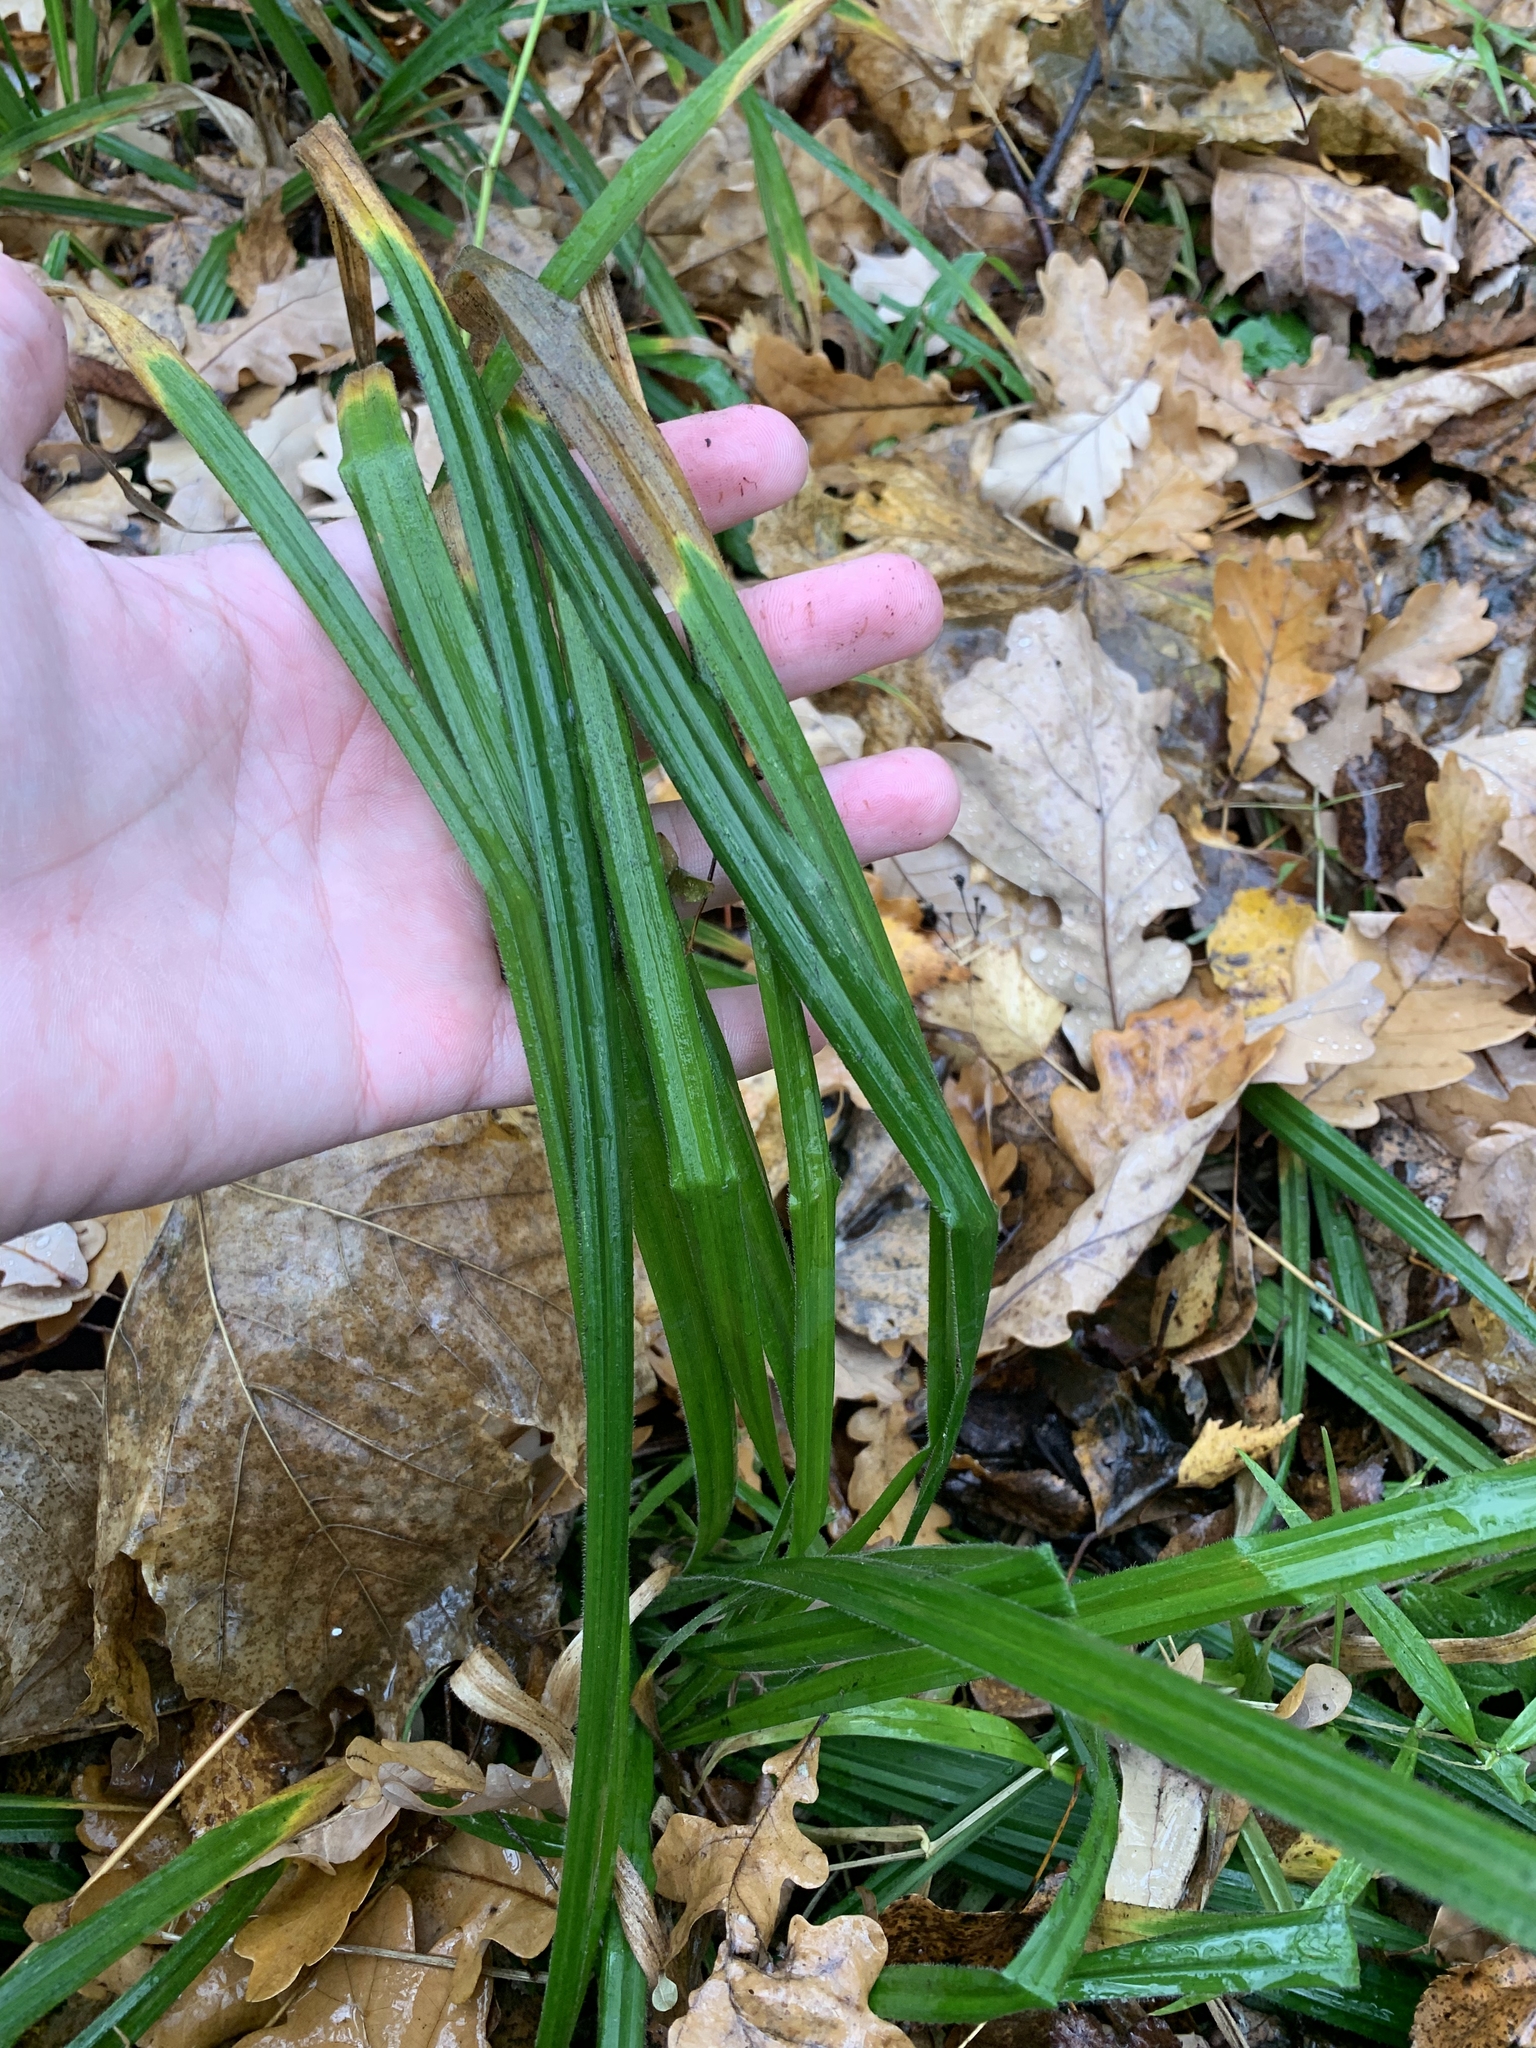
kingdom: Plantae
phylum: Tracheophyta
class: Liliopsida
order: Poales
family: Cyperaceae
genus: Carex
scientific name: Carex pilosa
